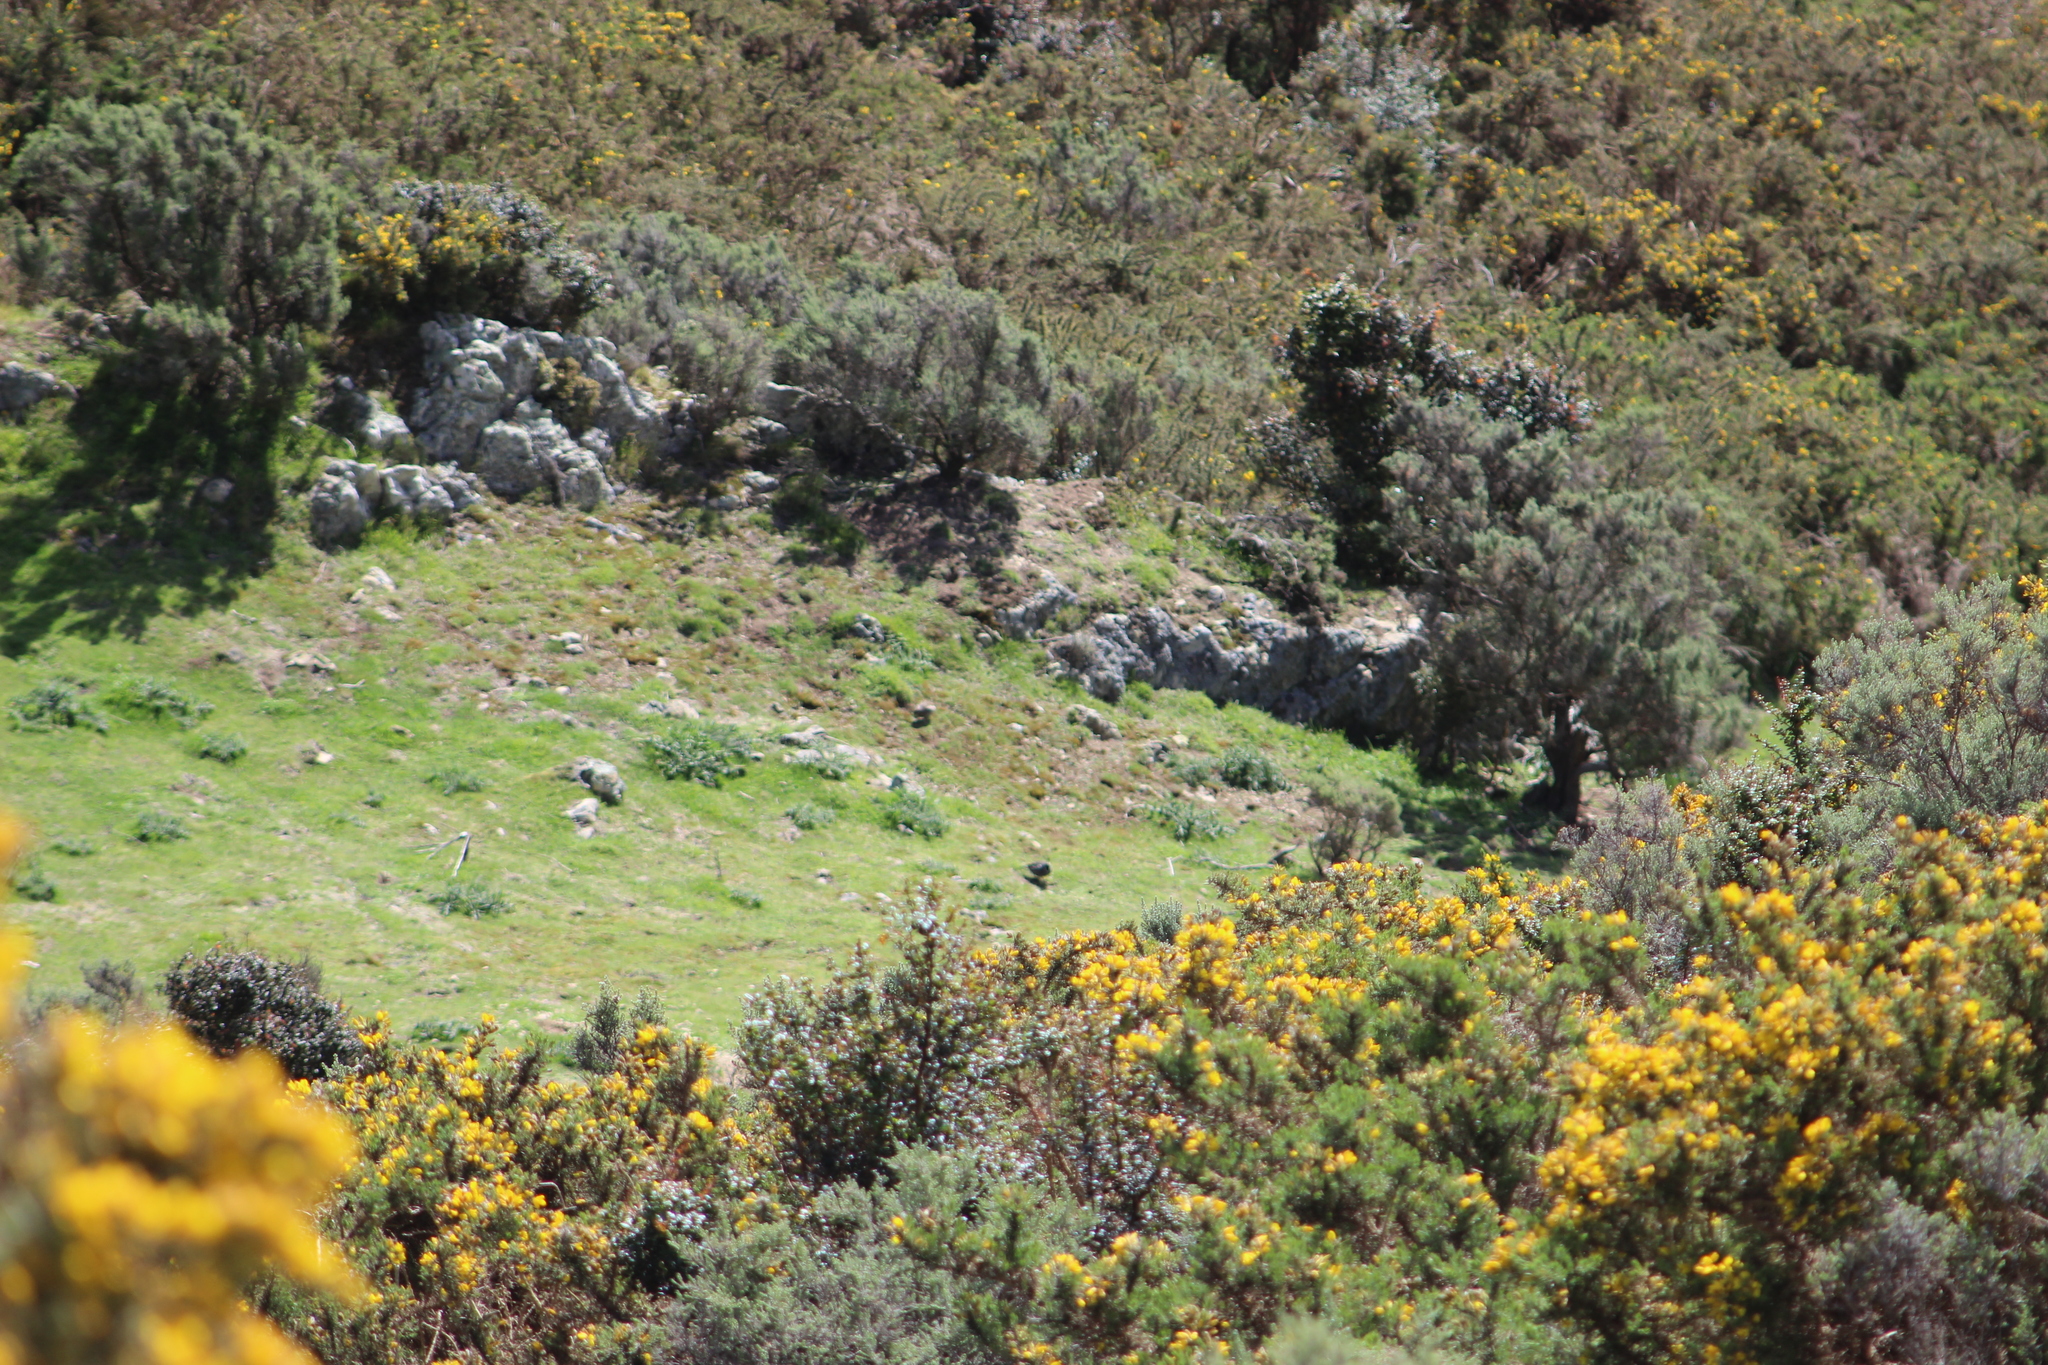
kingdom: Animalia
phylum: Chordata
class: Mammalia
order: Lagomorpha
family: Leporidae
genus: Oryctolagus
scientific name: Oryctolagus cuniculus
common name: European rabbit
